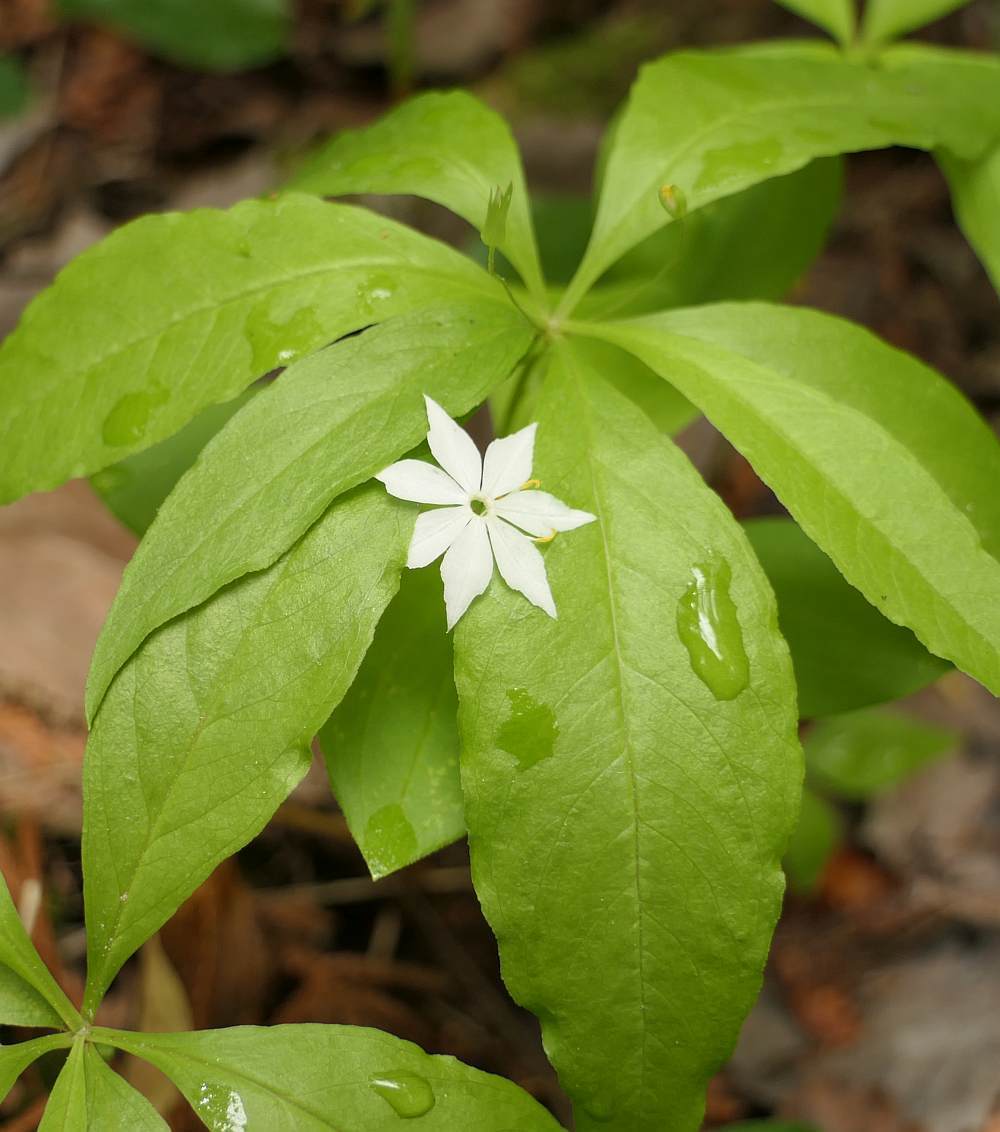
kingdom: Plantae
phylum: Tracheophyta
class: Magnoliopsida
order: Ericales
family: Primulaceae
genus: Lysimachia
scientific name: Lysimachia borealis
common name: American starflower
